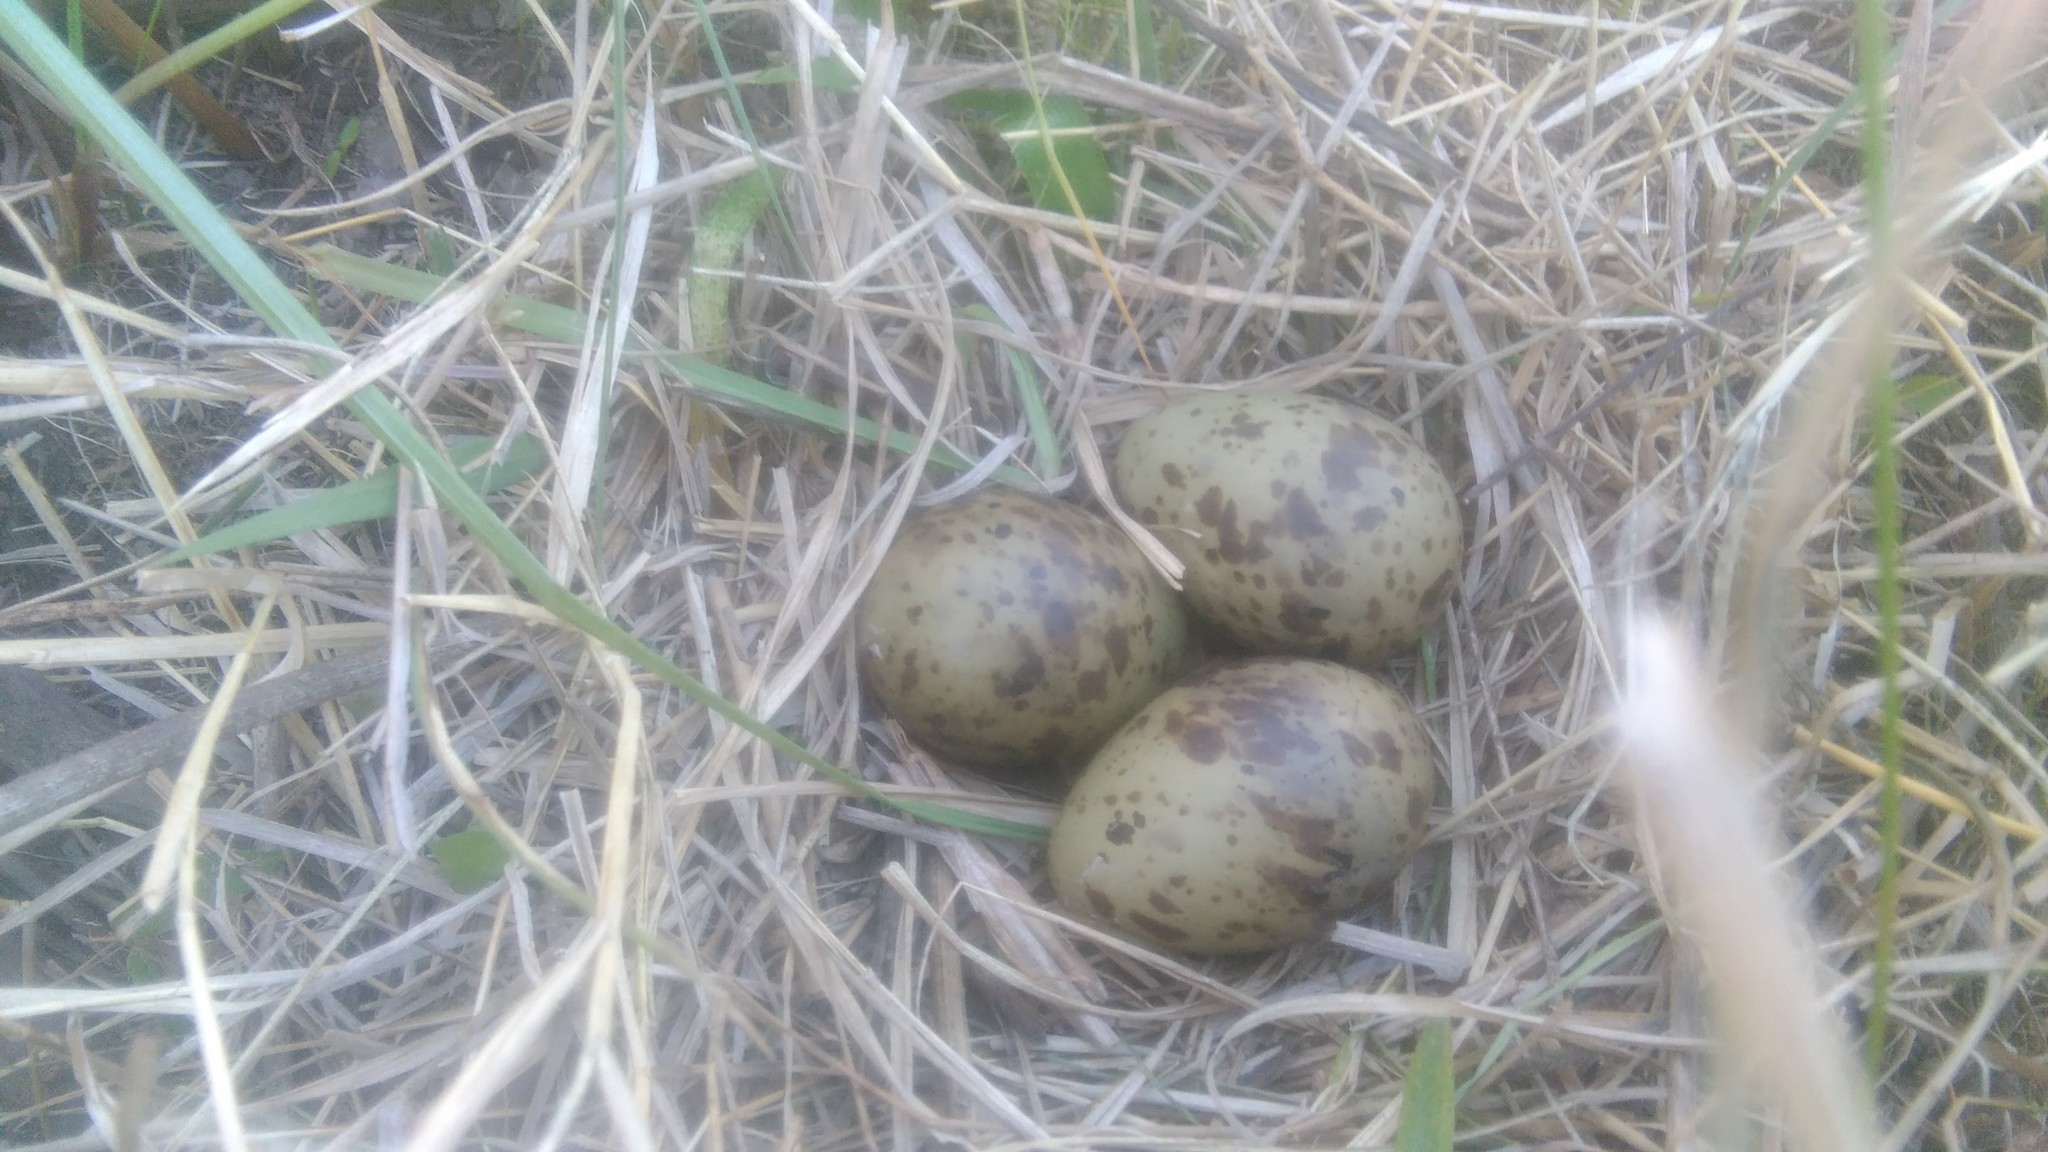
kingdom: Animalia
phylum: Chordata
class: Aves
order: Charadriiformes
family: Scolopacidae
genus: Gallinago
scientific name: Gallinago paraguaiae
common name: South american snipe
